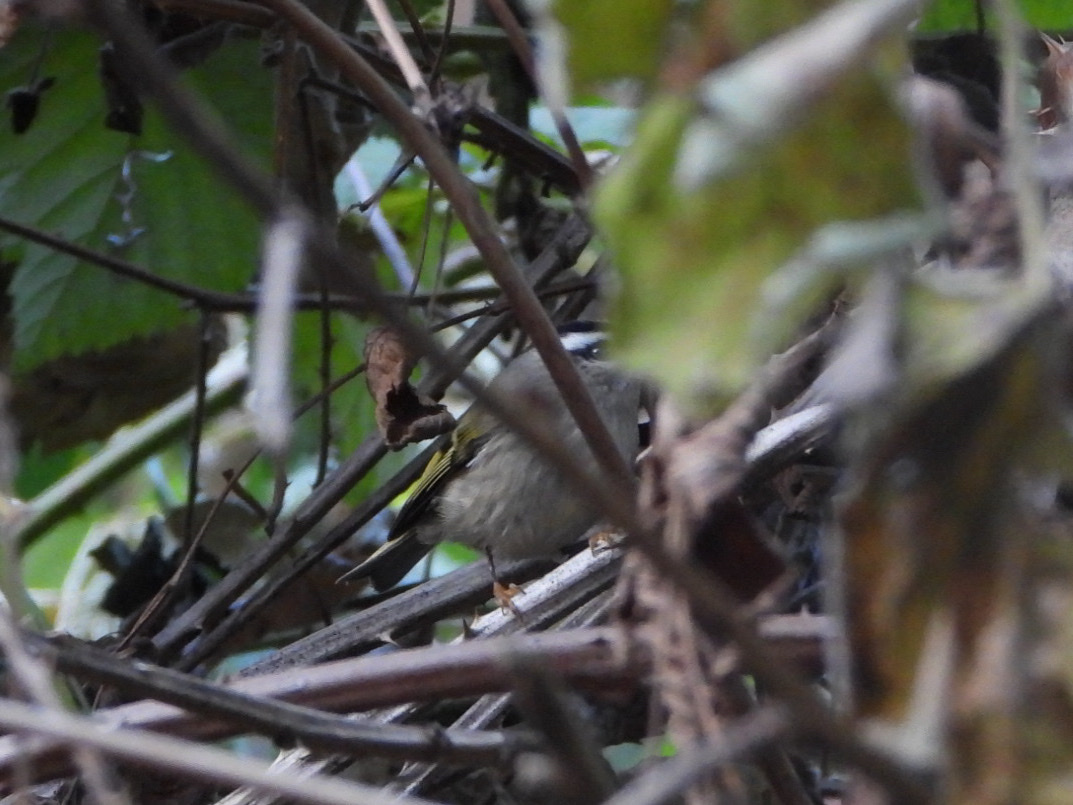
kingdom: Animalia
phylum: Chordata
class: Aves
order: Passeriformes
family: Regulidae
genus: Regulus
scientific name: Regulus satrapa
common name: Golden-crowned kinglet
